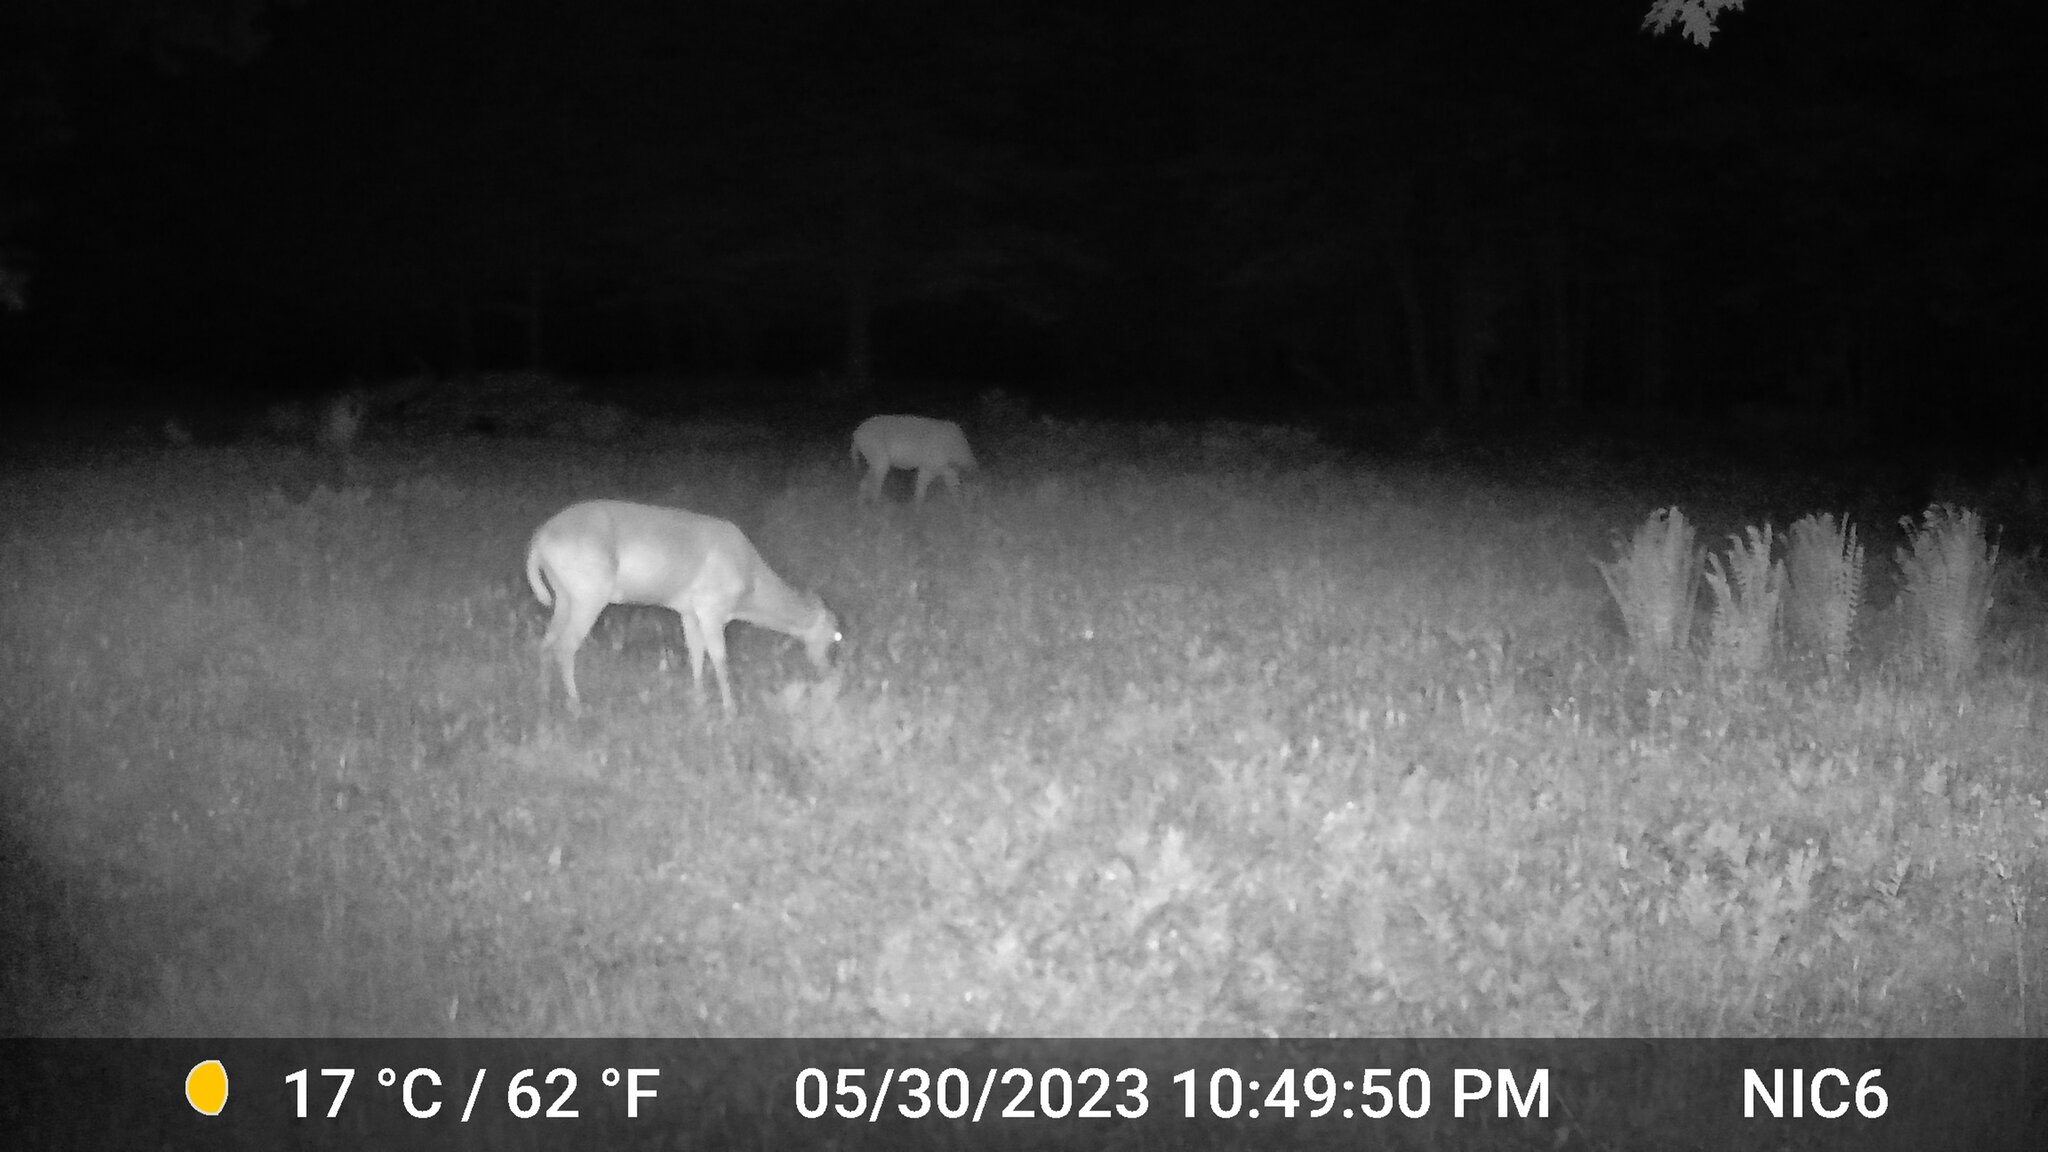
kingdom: Animalia
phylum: Chordata
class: Mammalia
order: Artiodactyla
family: Cervidae
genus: Odocoileus
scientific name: Odocoileus virginianus
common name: White-tailed deer
